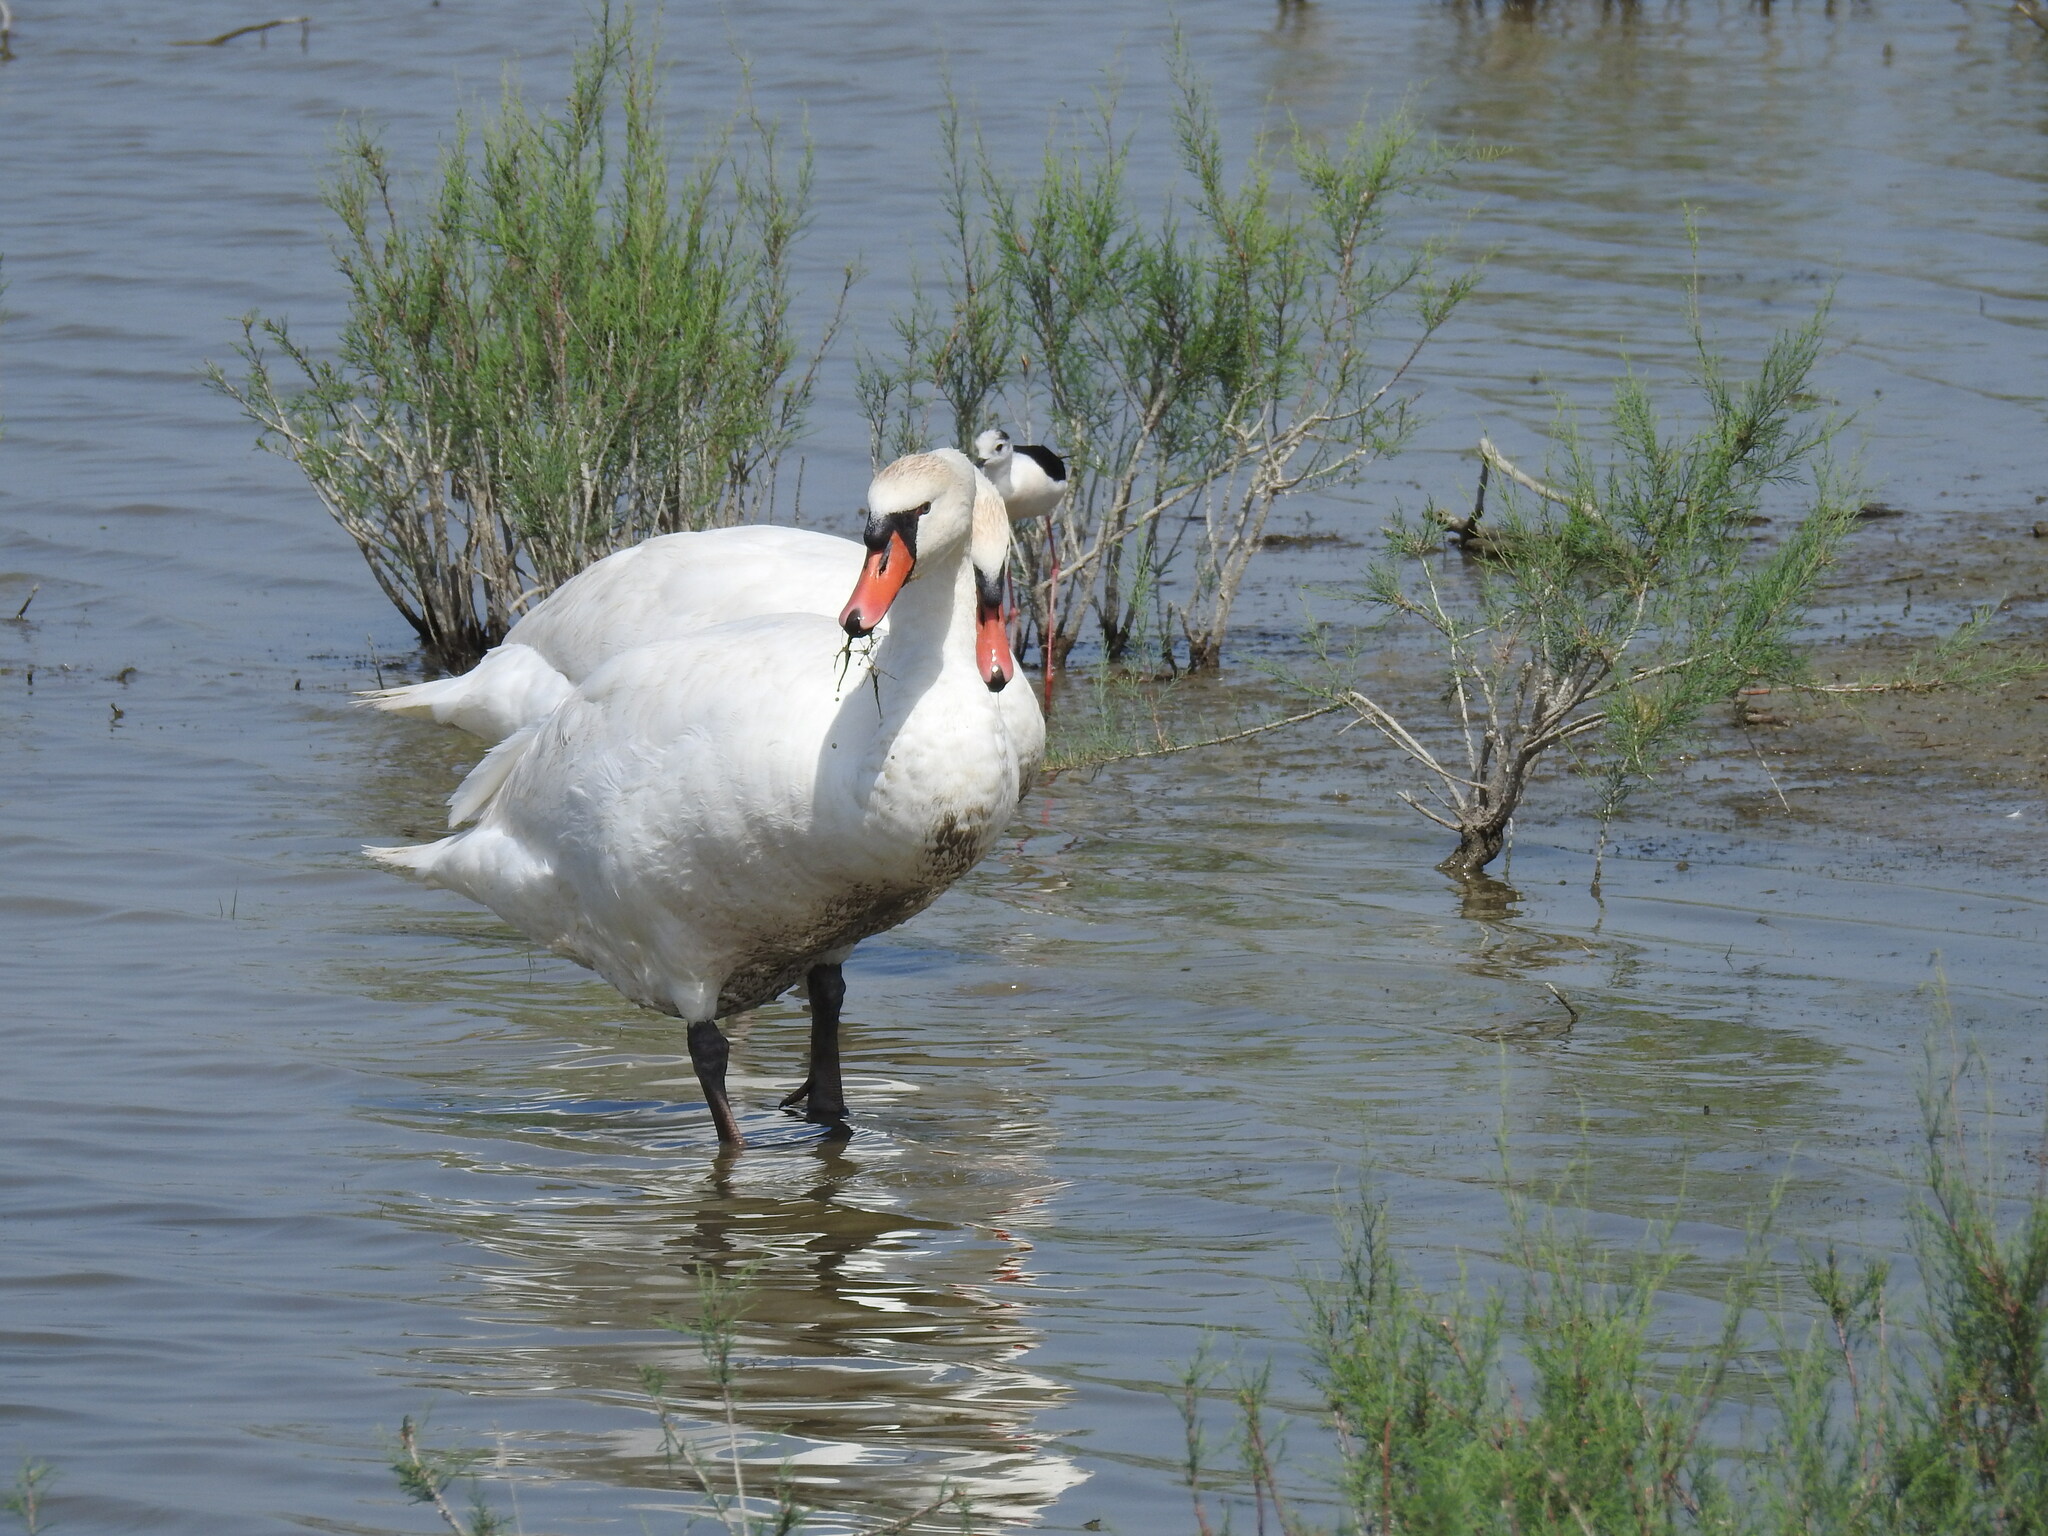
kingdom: Animalia
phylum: Chordata
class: Aves
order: Anseriformes
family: Anatidae
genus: Cygnus
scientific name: Cygnus olor
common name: Mute swan
